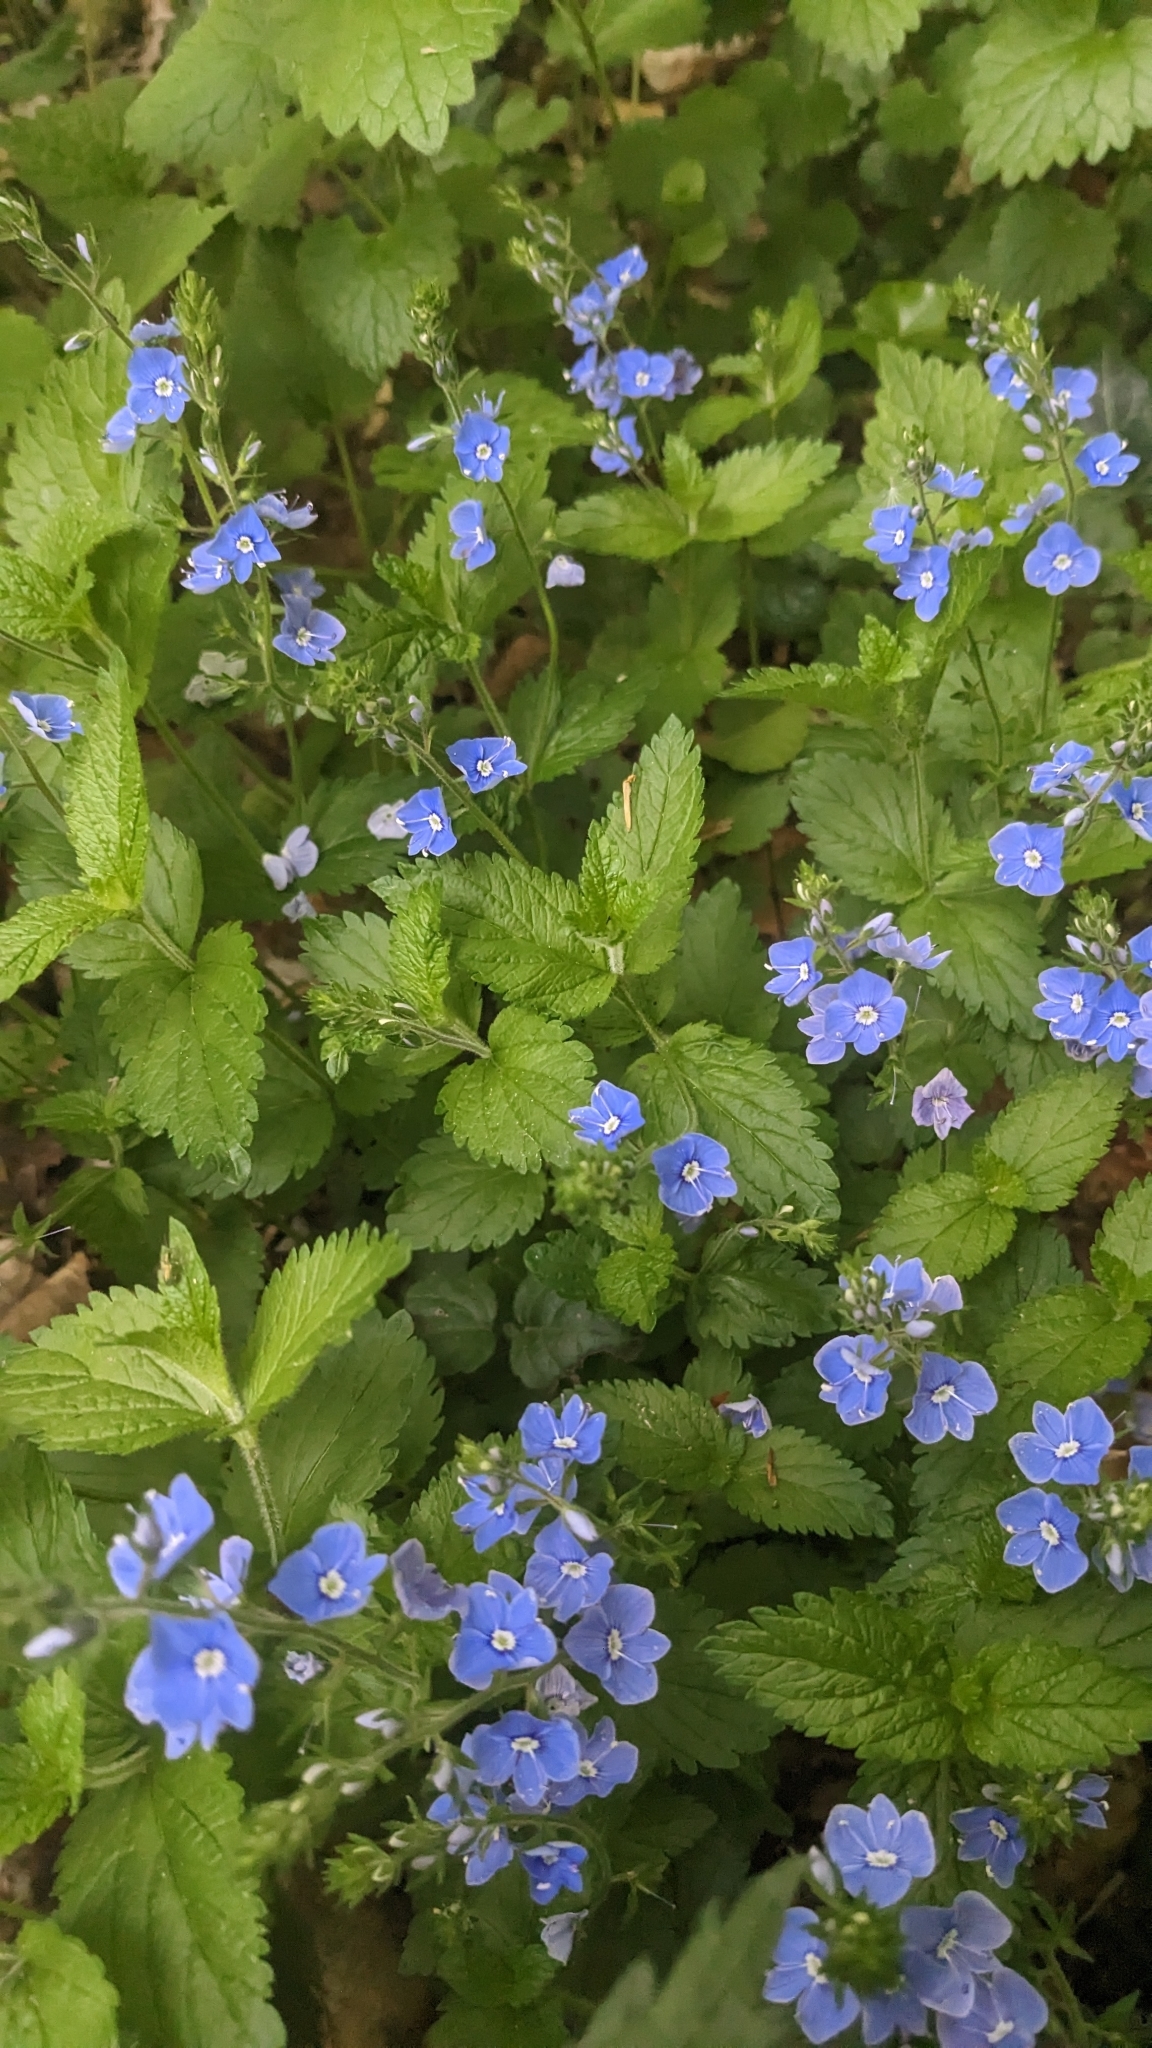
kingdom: Plantae
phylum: Tracheophyta
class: Magnoliopsida
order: Lamiales
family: Plantaginaceae
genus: Veronica
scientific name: Veronica chamaedrys
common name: Germander speedwell
